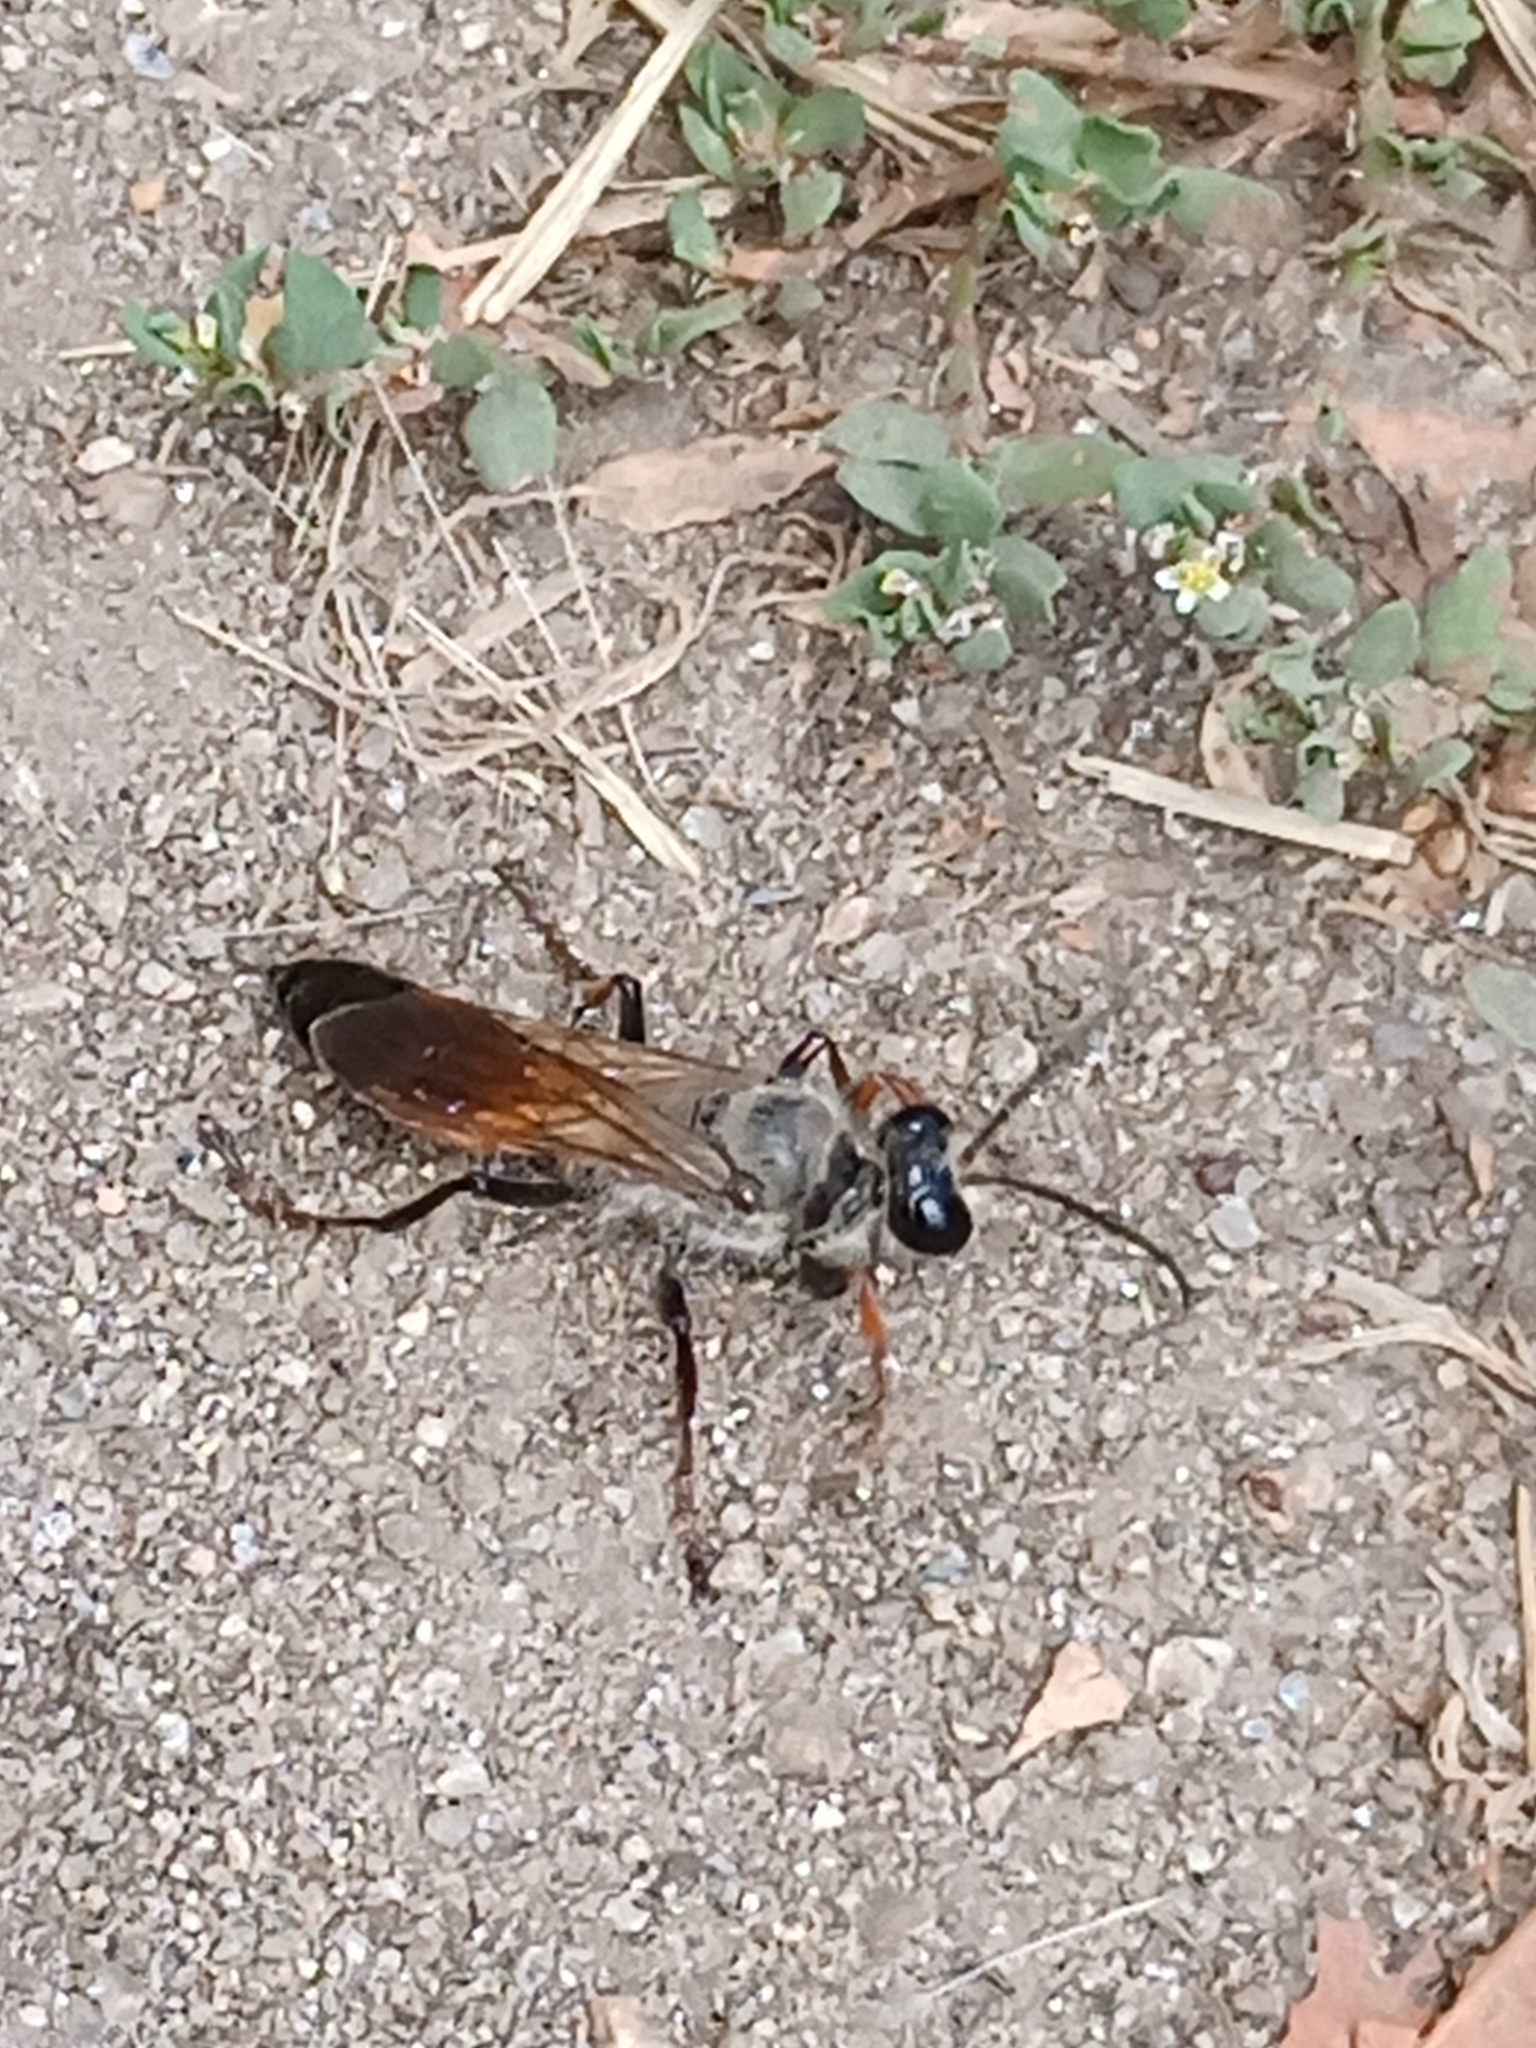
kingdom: Animalia
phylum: Arthropoda
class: Insecta
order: Hymenoptera
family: Sphecidae
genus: Sphex
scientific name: Sphex funerarius
